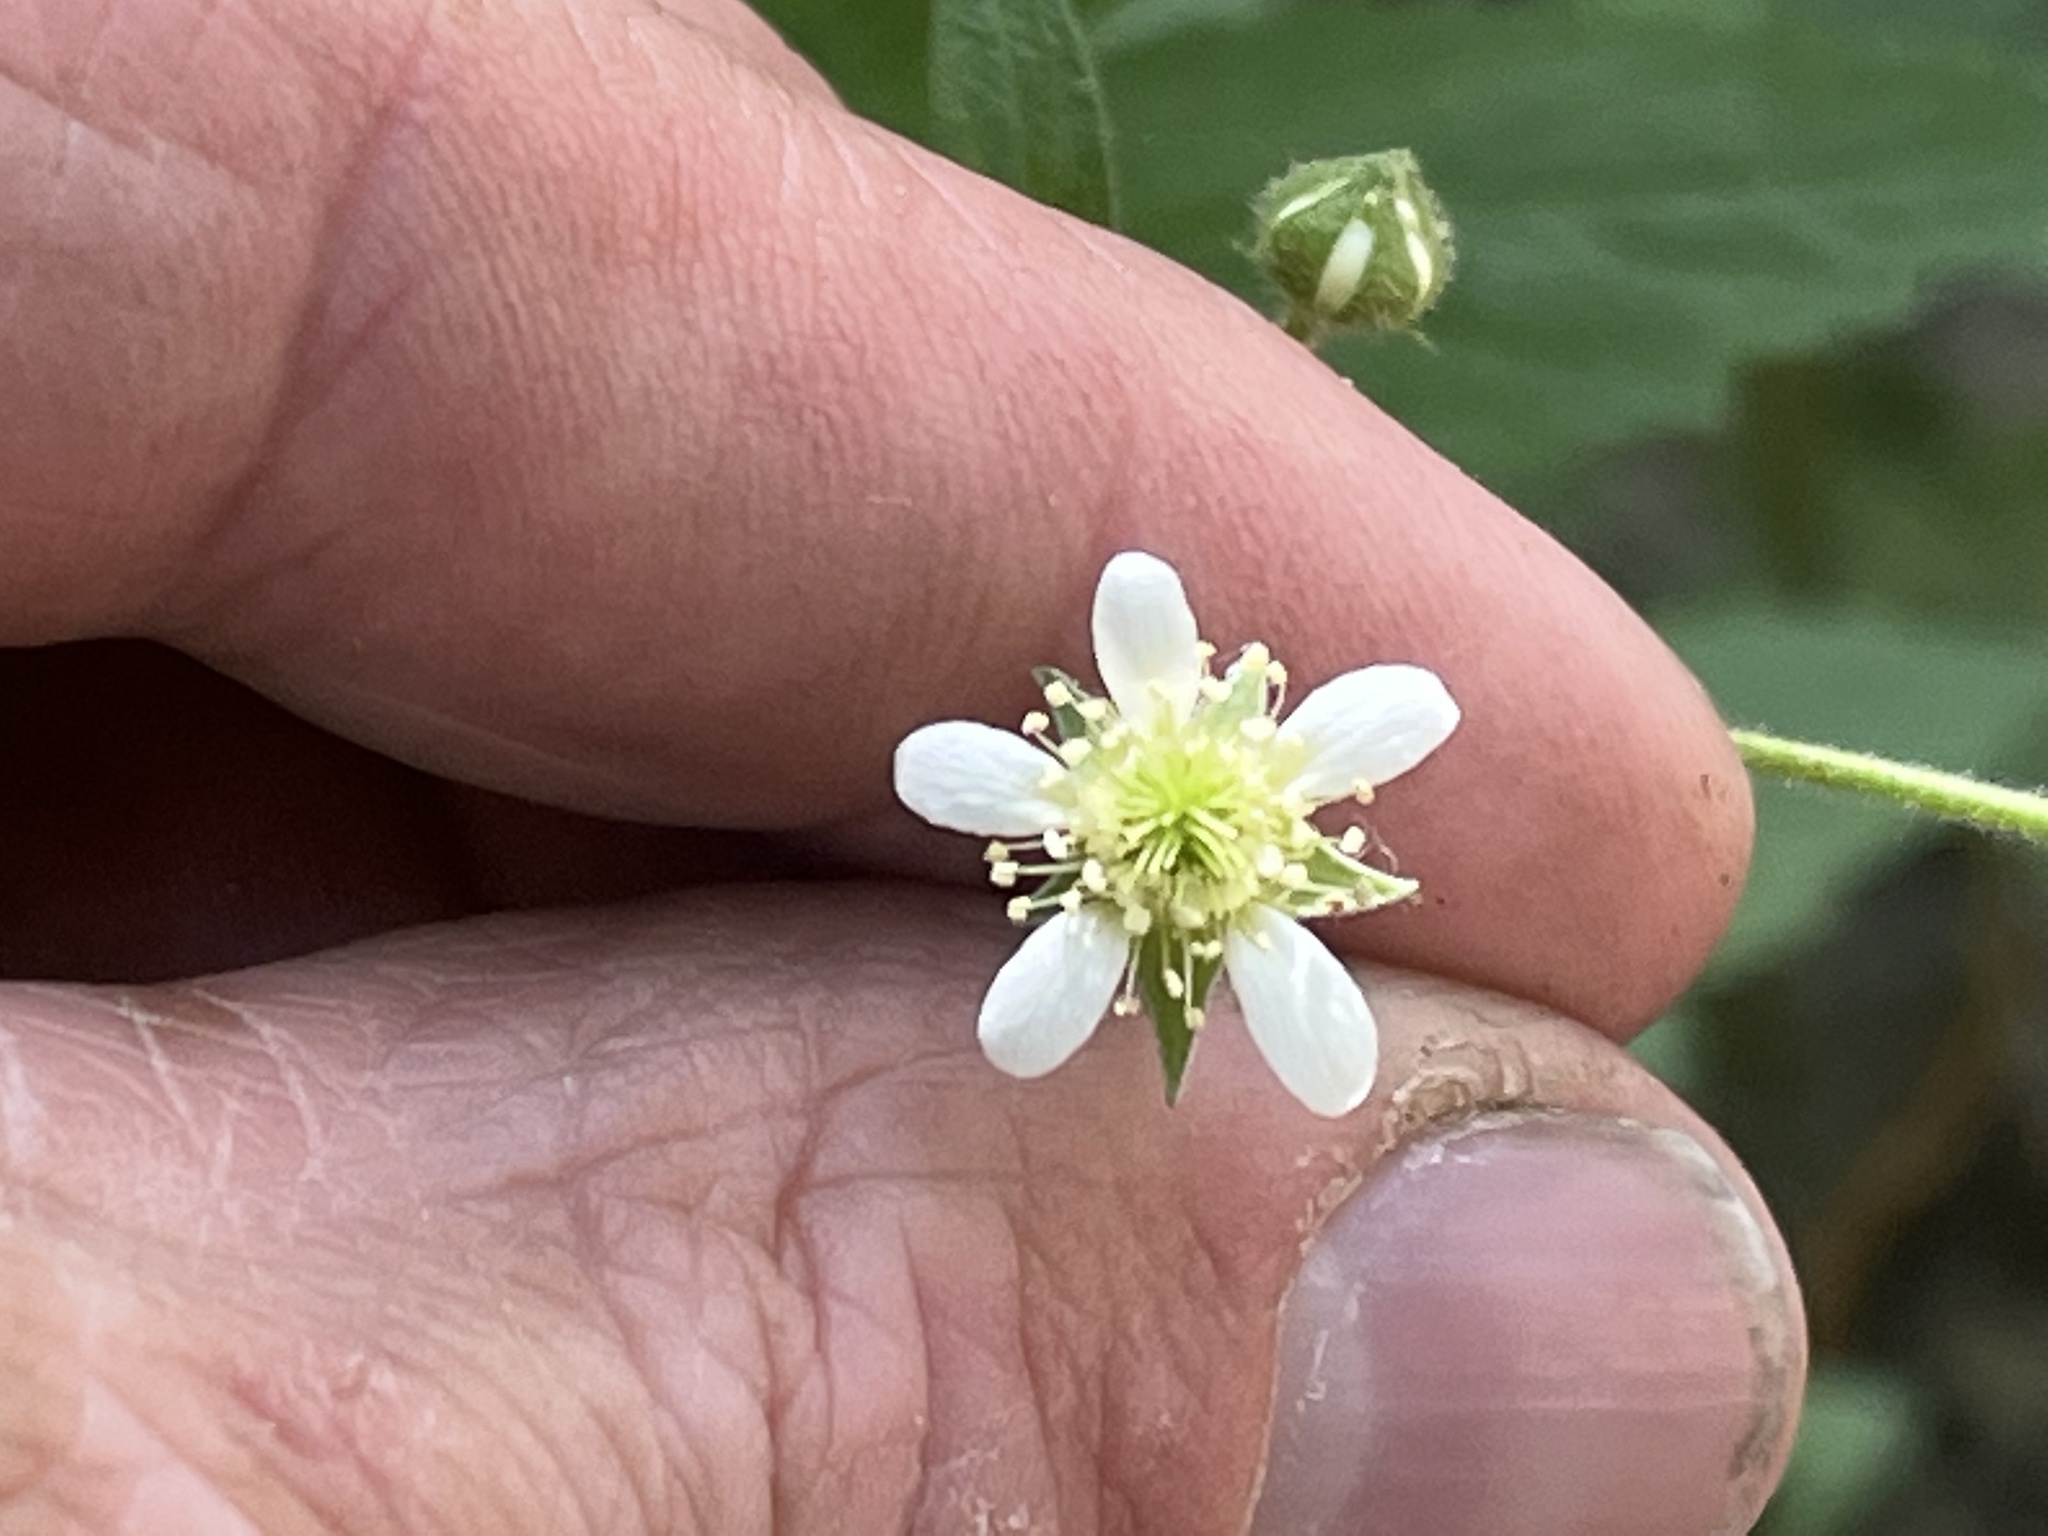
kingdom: Plantae
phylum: Tracheophyta
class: Magnoliopsida
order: Rosales
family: Rosaceae
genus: Geum
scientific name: Geum canadense
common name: White avens
